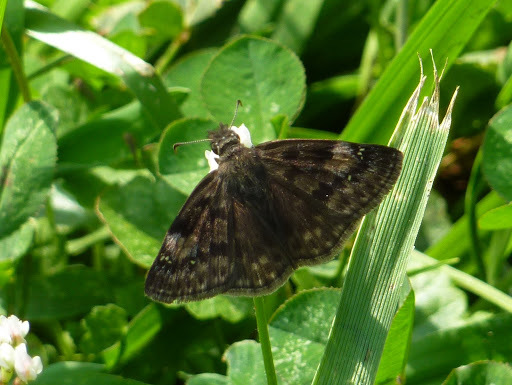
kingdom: Animalia
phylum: Arthropoda
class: Insecta
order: Lepidoptera
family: Hesperiidae
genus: Erynnis
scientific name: Erynnis baptisiae
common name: Wild indigo duskywing
